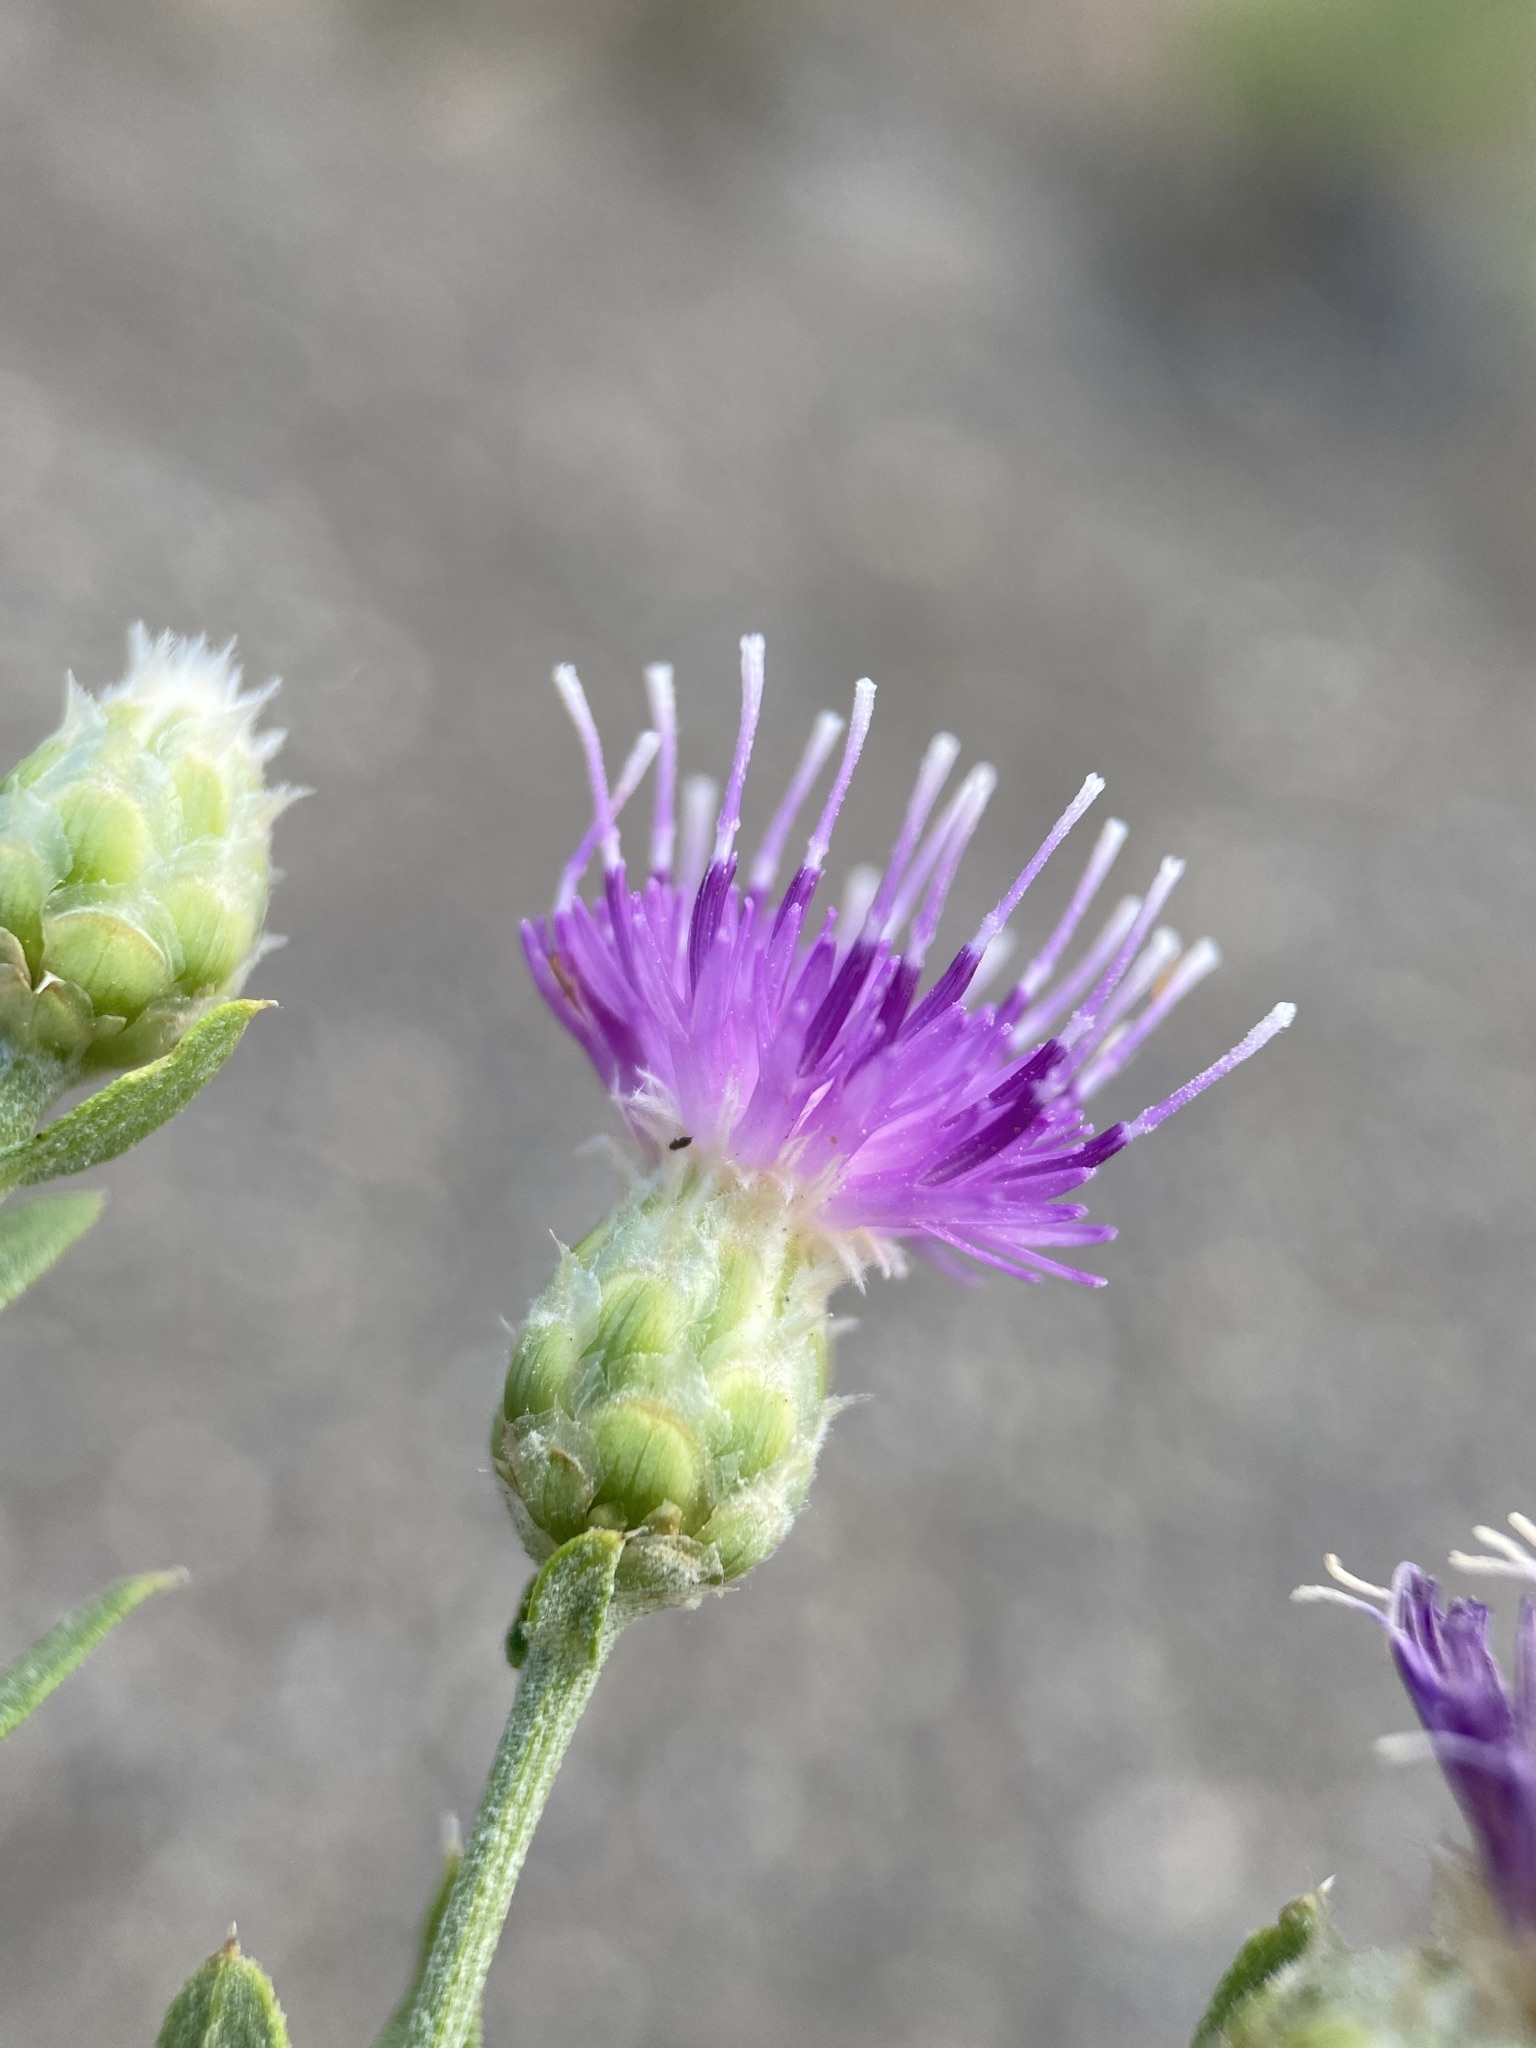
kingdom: Plantae
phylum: Tracheophyta
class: Magnoliopsida
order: Asterales
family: Asteraceae
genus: Leuzea
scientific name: Leuzea repens
